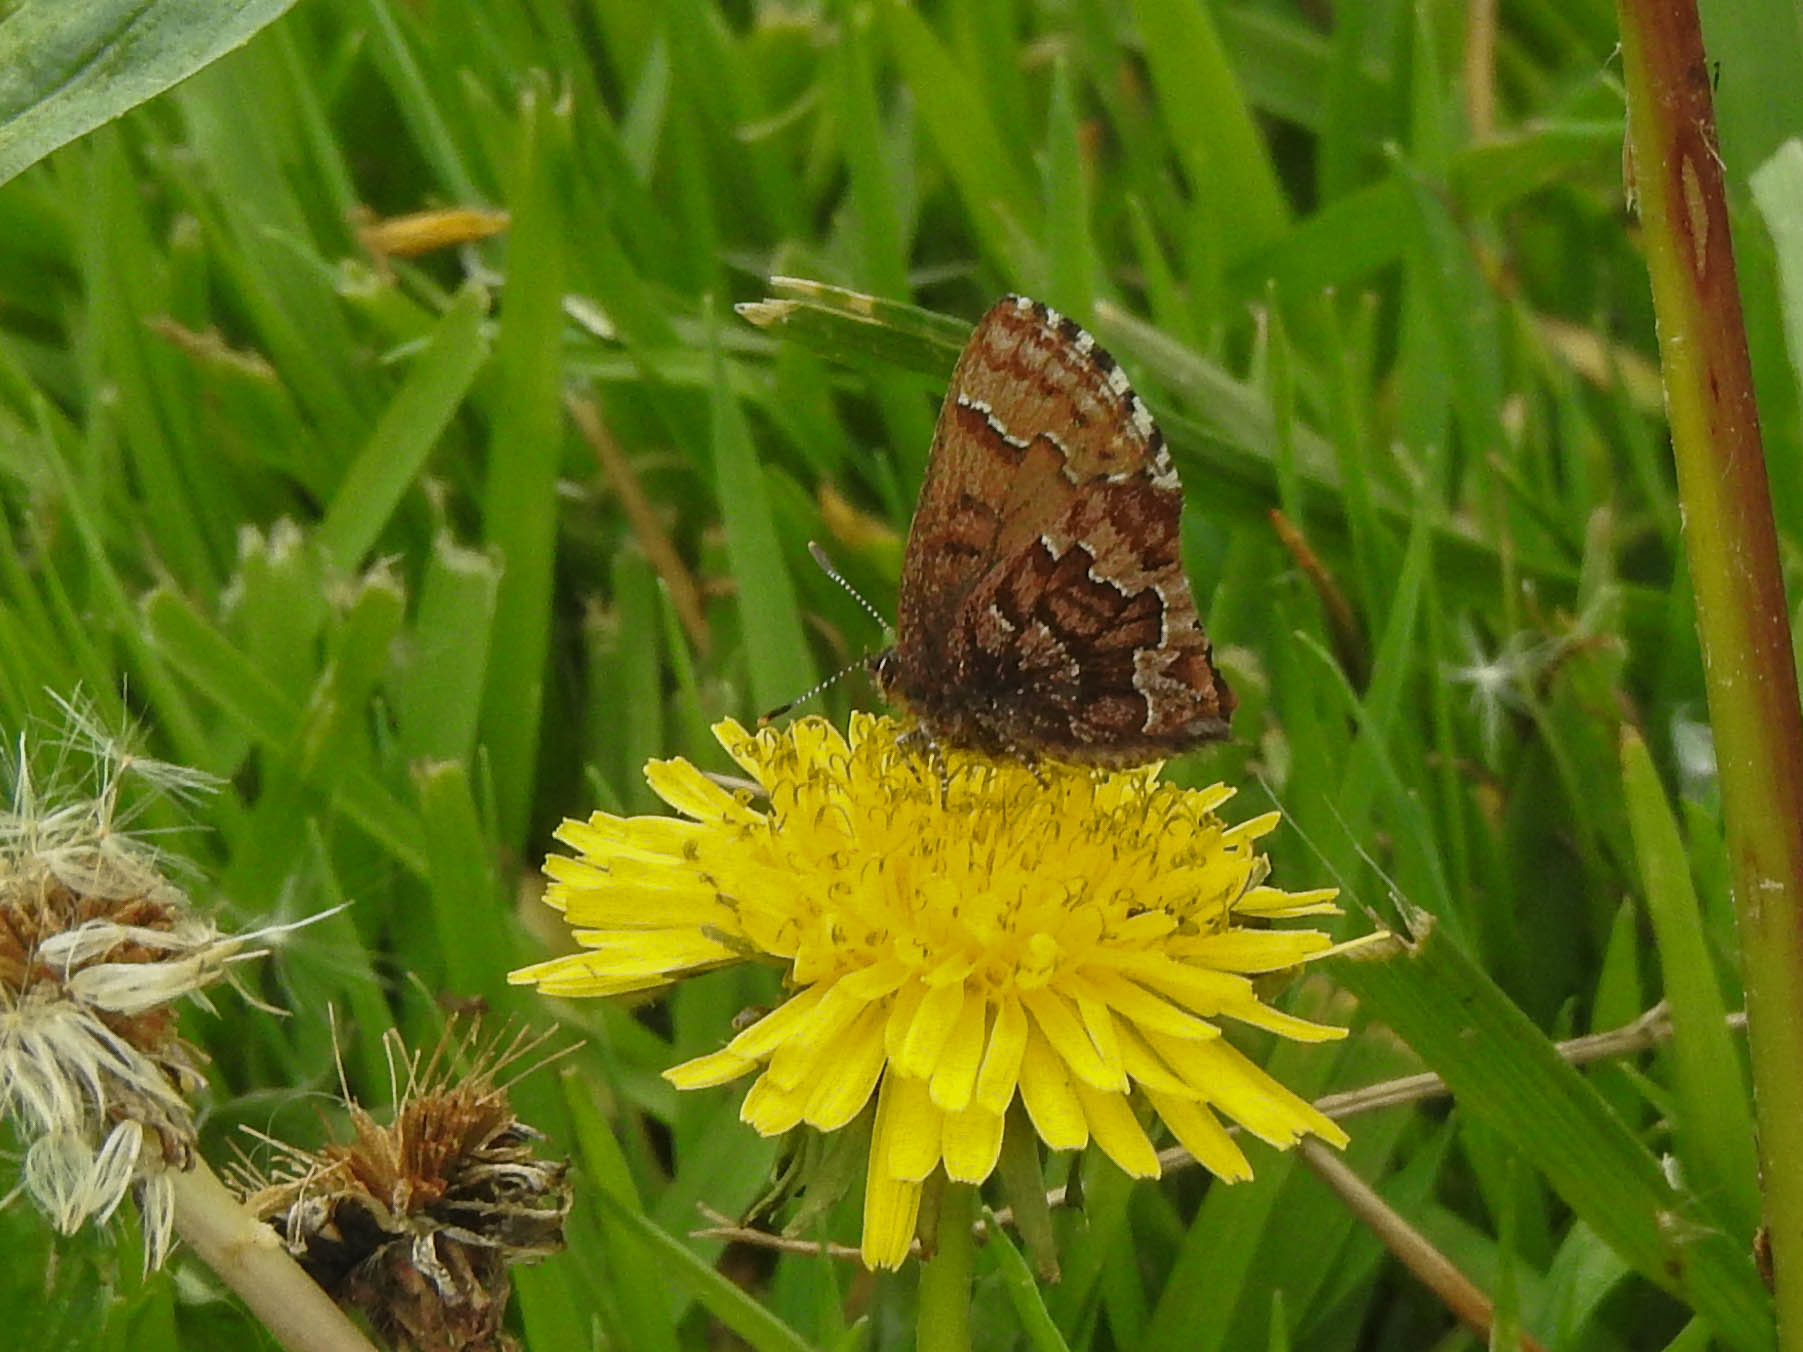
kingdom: Animalia
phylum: Arthropoda
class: Insecta
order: Lepidoptera
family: Lycaenidae
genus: Incisalia
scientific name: Incisalia niphon
